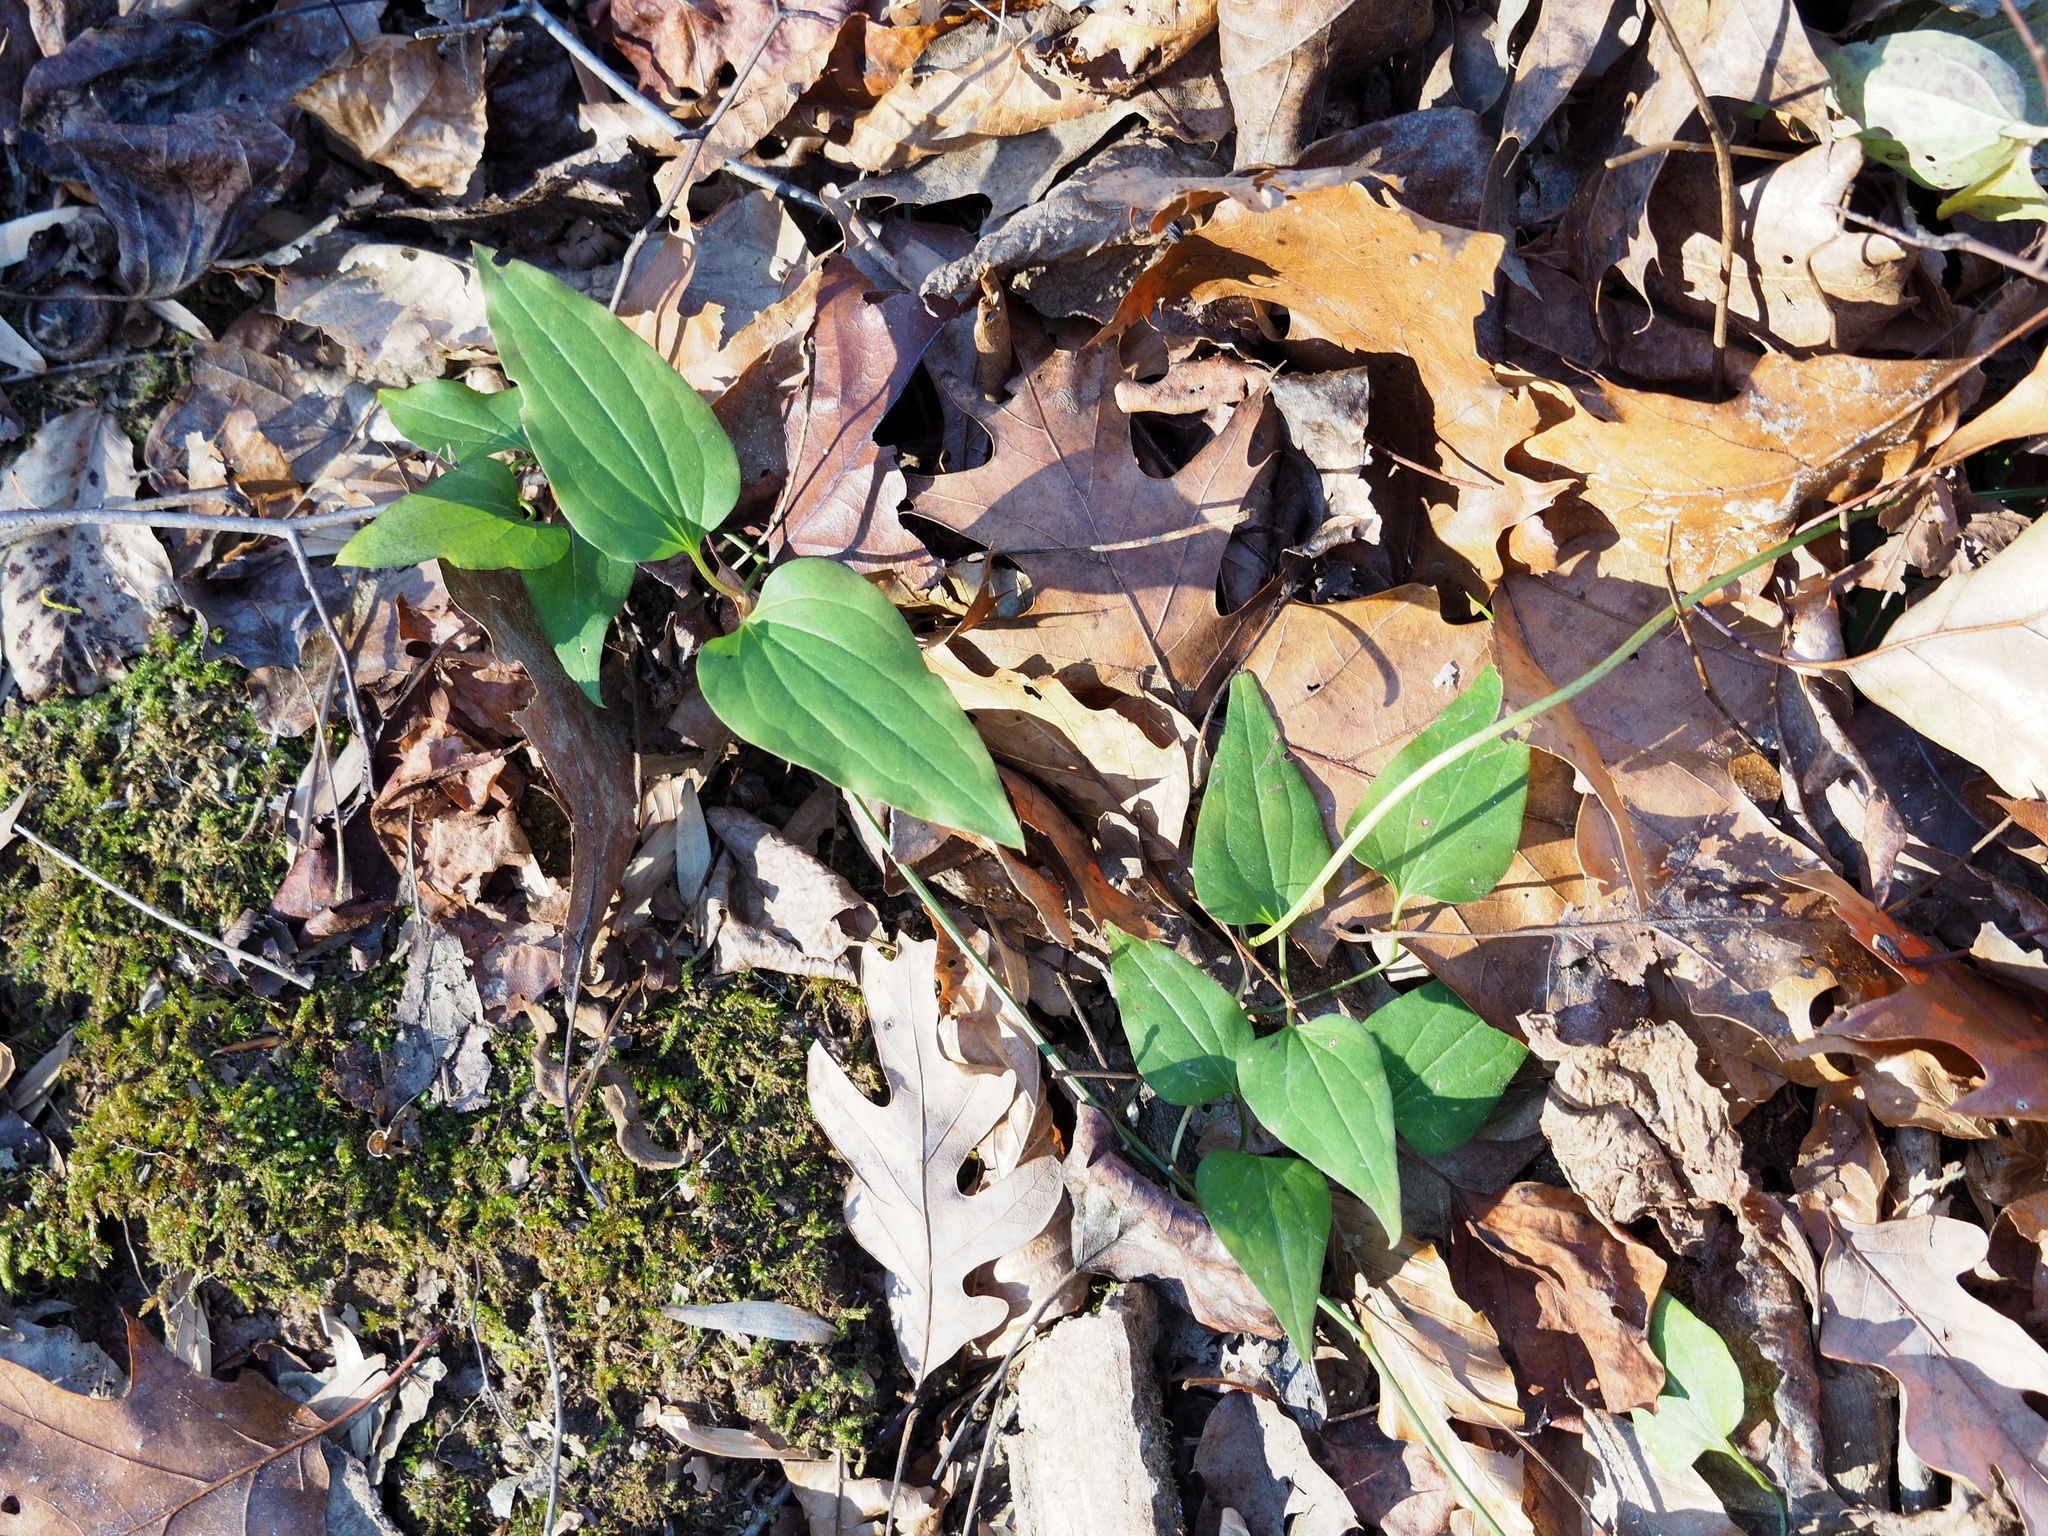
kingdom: Plantae
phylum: Tracheophyta
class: Magnoliopsida
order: Ranunculales
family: Ranunculaceae
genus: Clematis
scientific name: Clematis terniflora
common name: Sweet autumn clematis
